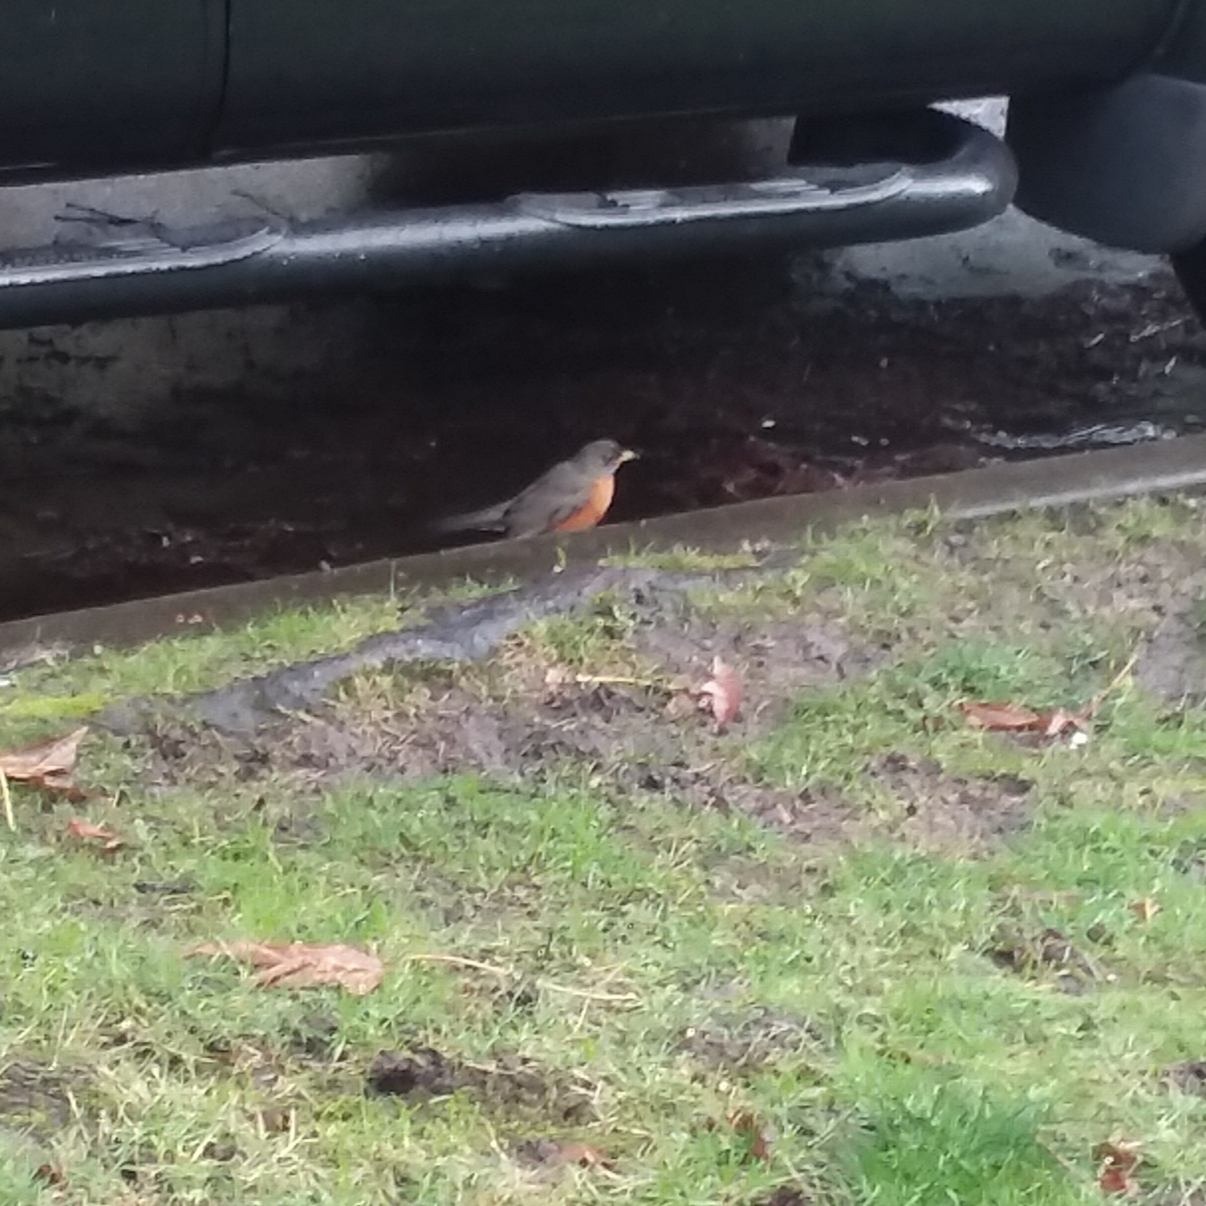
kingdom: Animalia
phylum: Chordata
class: Aves
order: Passeriformes
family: Turdidae
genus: Turdus
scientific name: Turdus migratorius
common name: American robin
